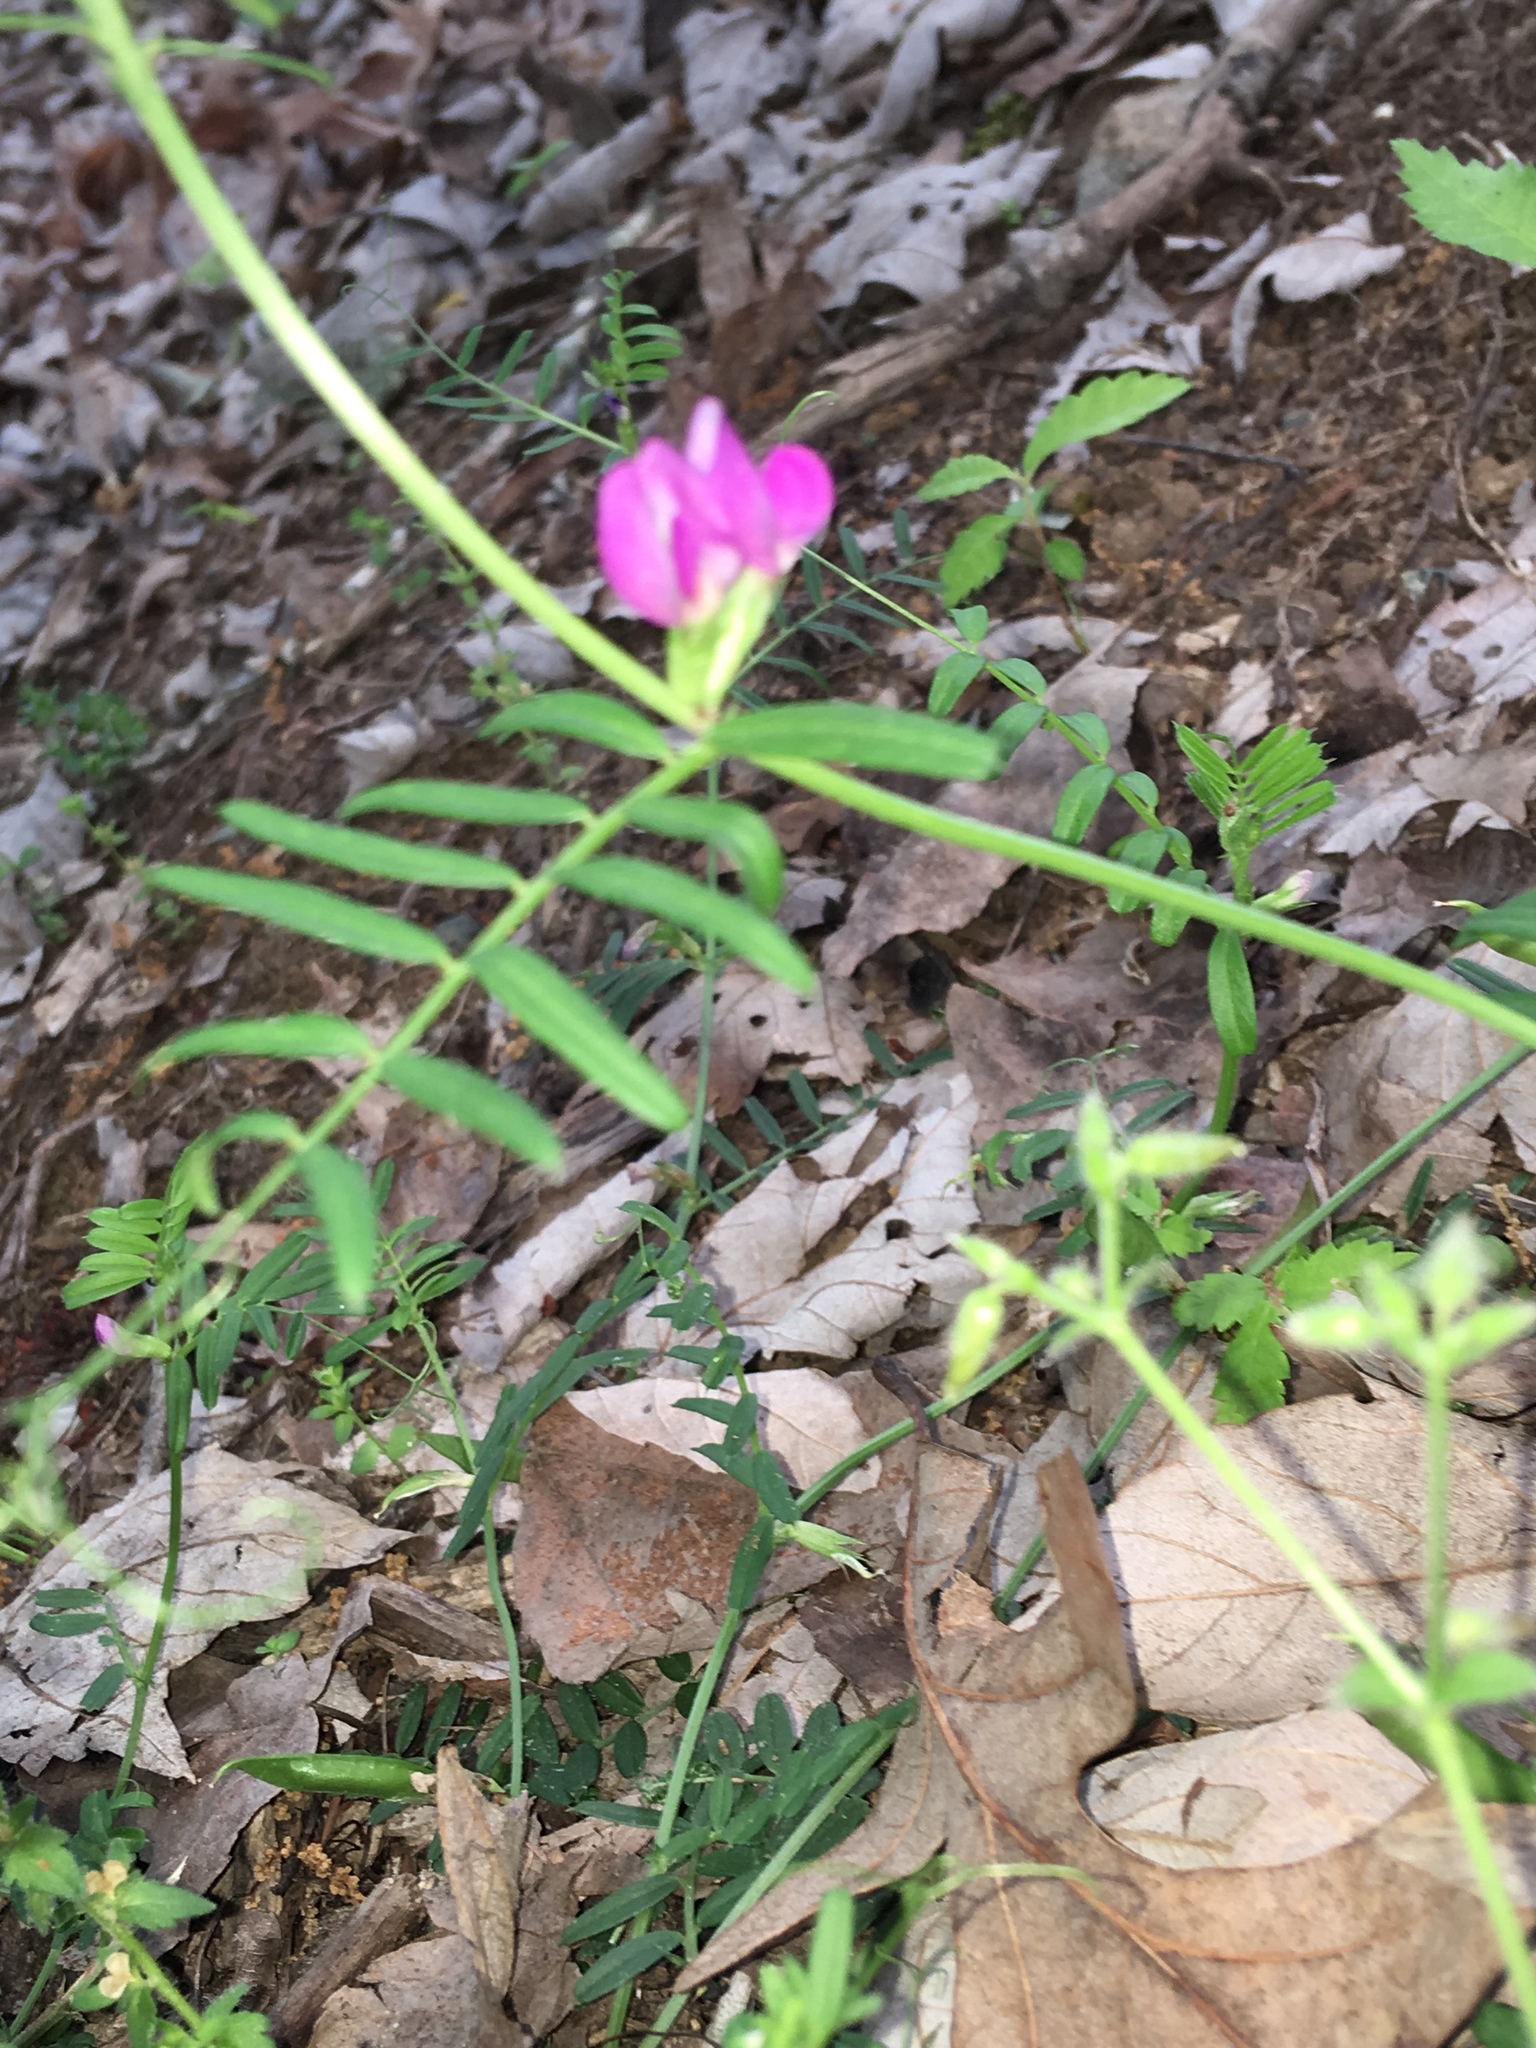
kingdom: Plantae
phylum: Tracheophyta
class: Magnoliopsida
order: Fabales
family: Fabaceae
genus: Vicia
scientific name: Vicia sativa
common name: Garden vetch
